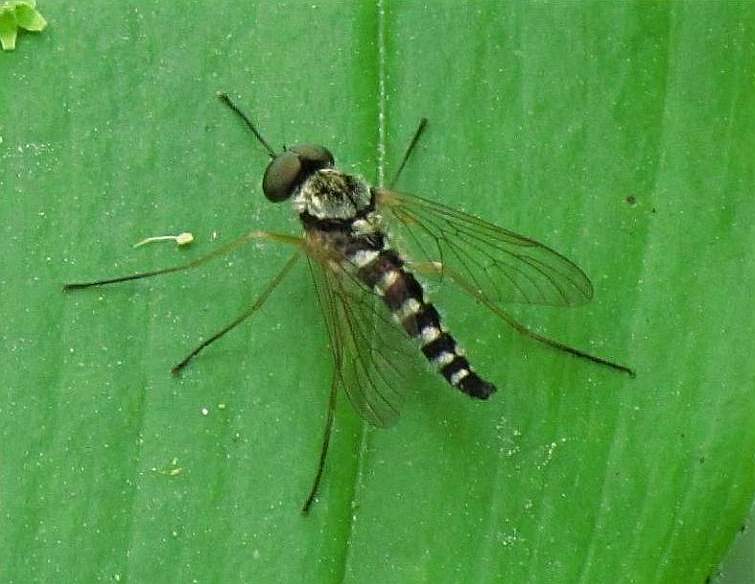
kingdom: Animalia
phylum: Arthropoda
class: Insecta
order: Diptera
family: Rhagionidae
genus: Chrysopilus
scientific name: Chrysopilus ornatus
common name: Ornate snipe fly
